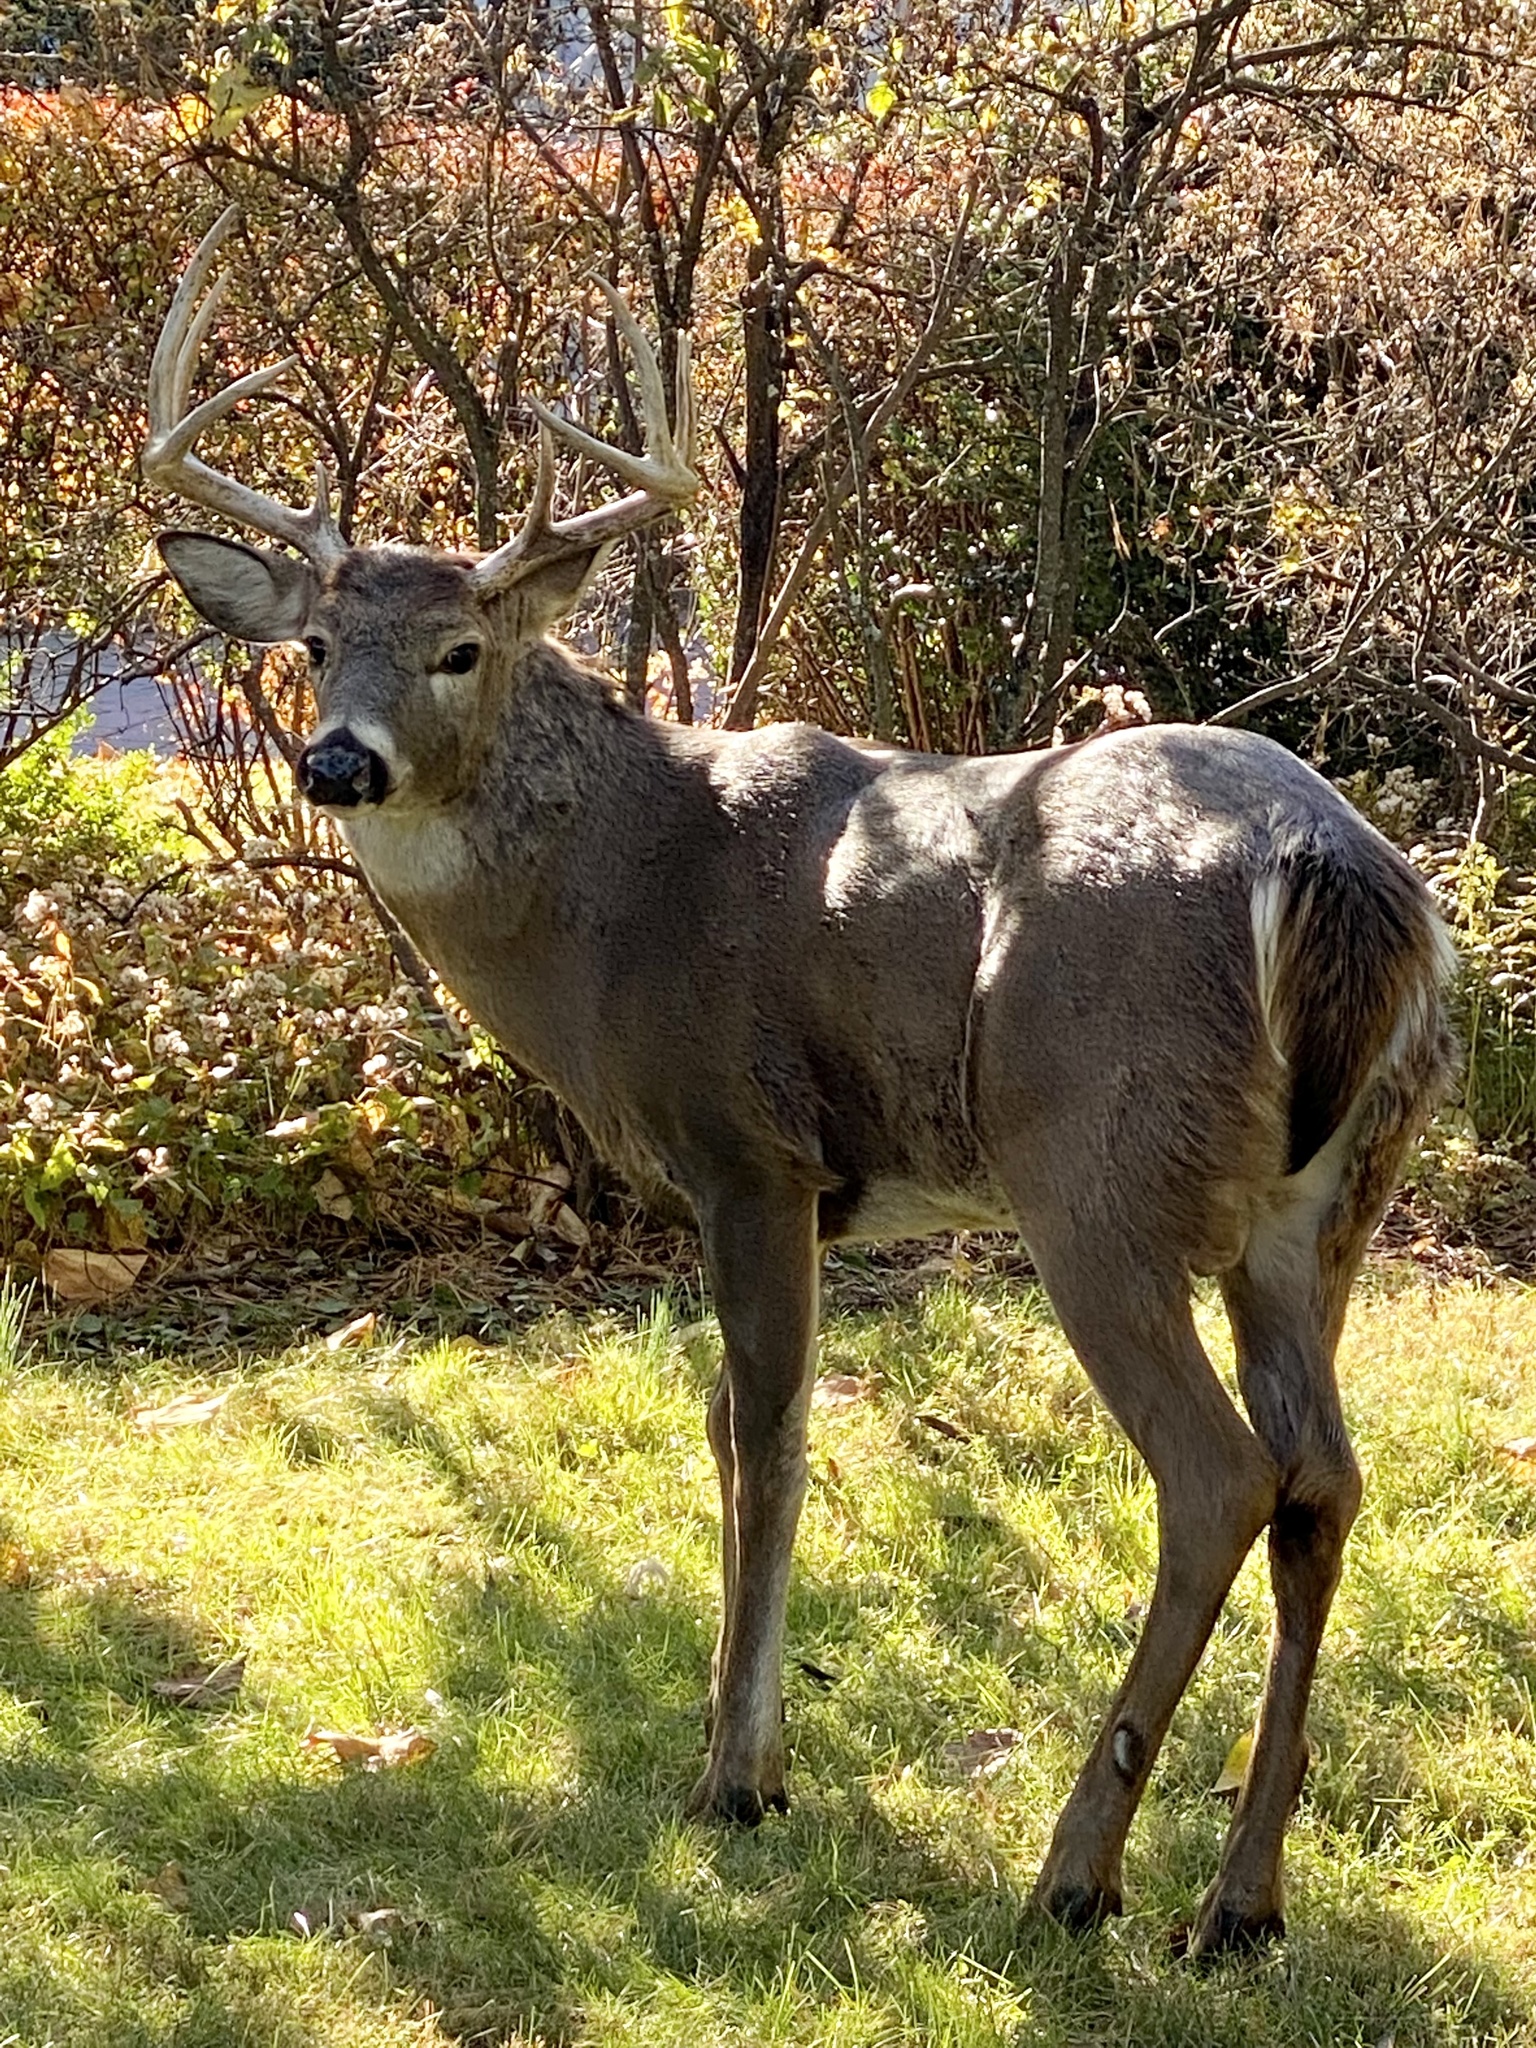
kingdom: Animalia
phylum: Chordata
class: Mammalia
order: Artiodactyla
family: Cervidae
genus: Odocoileus
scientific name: Odocoileus virginianus
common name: White-tailed deer
